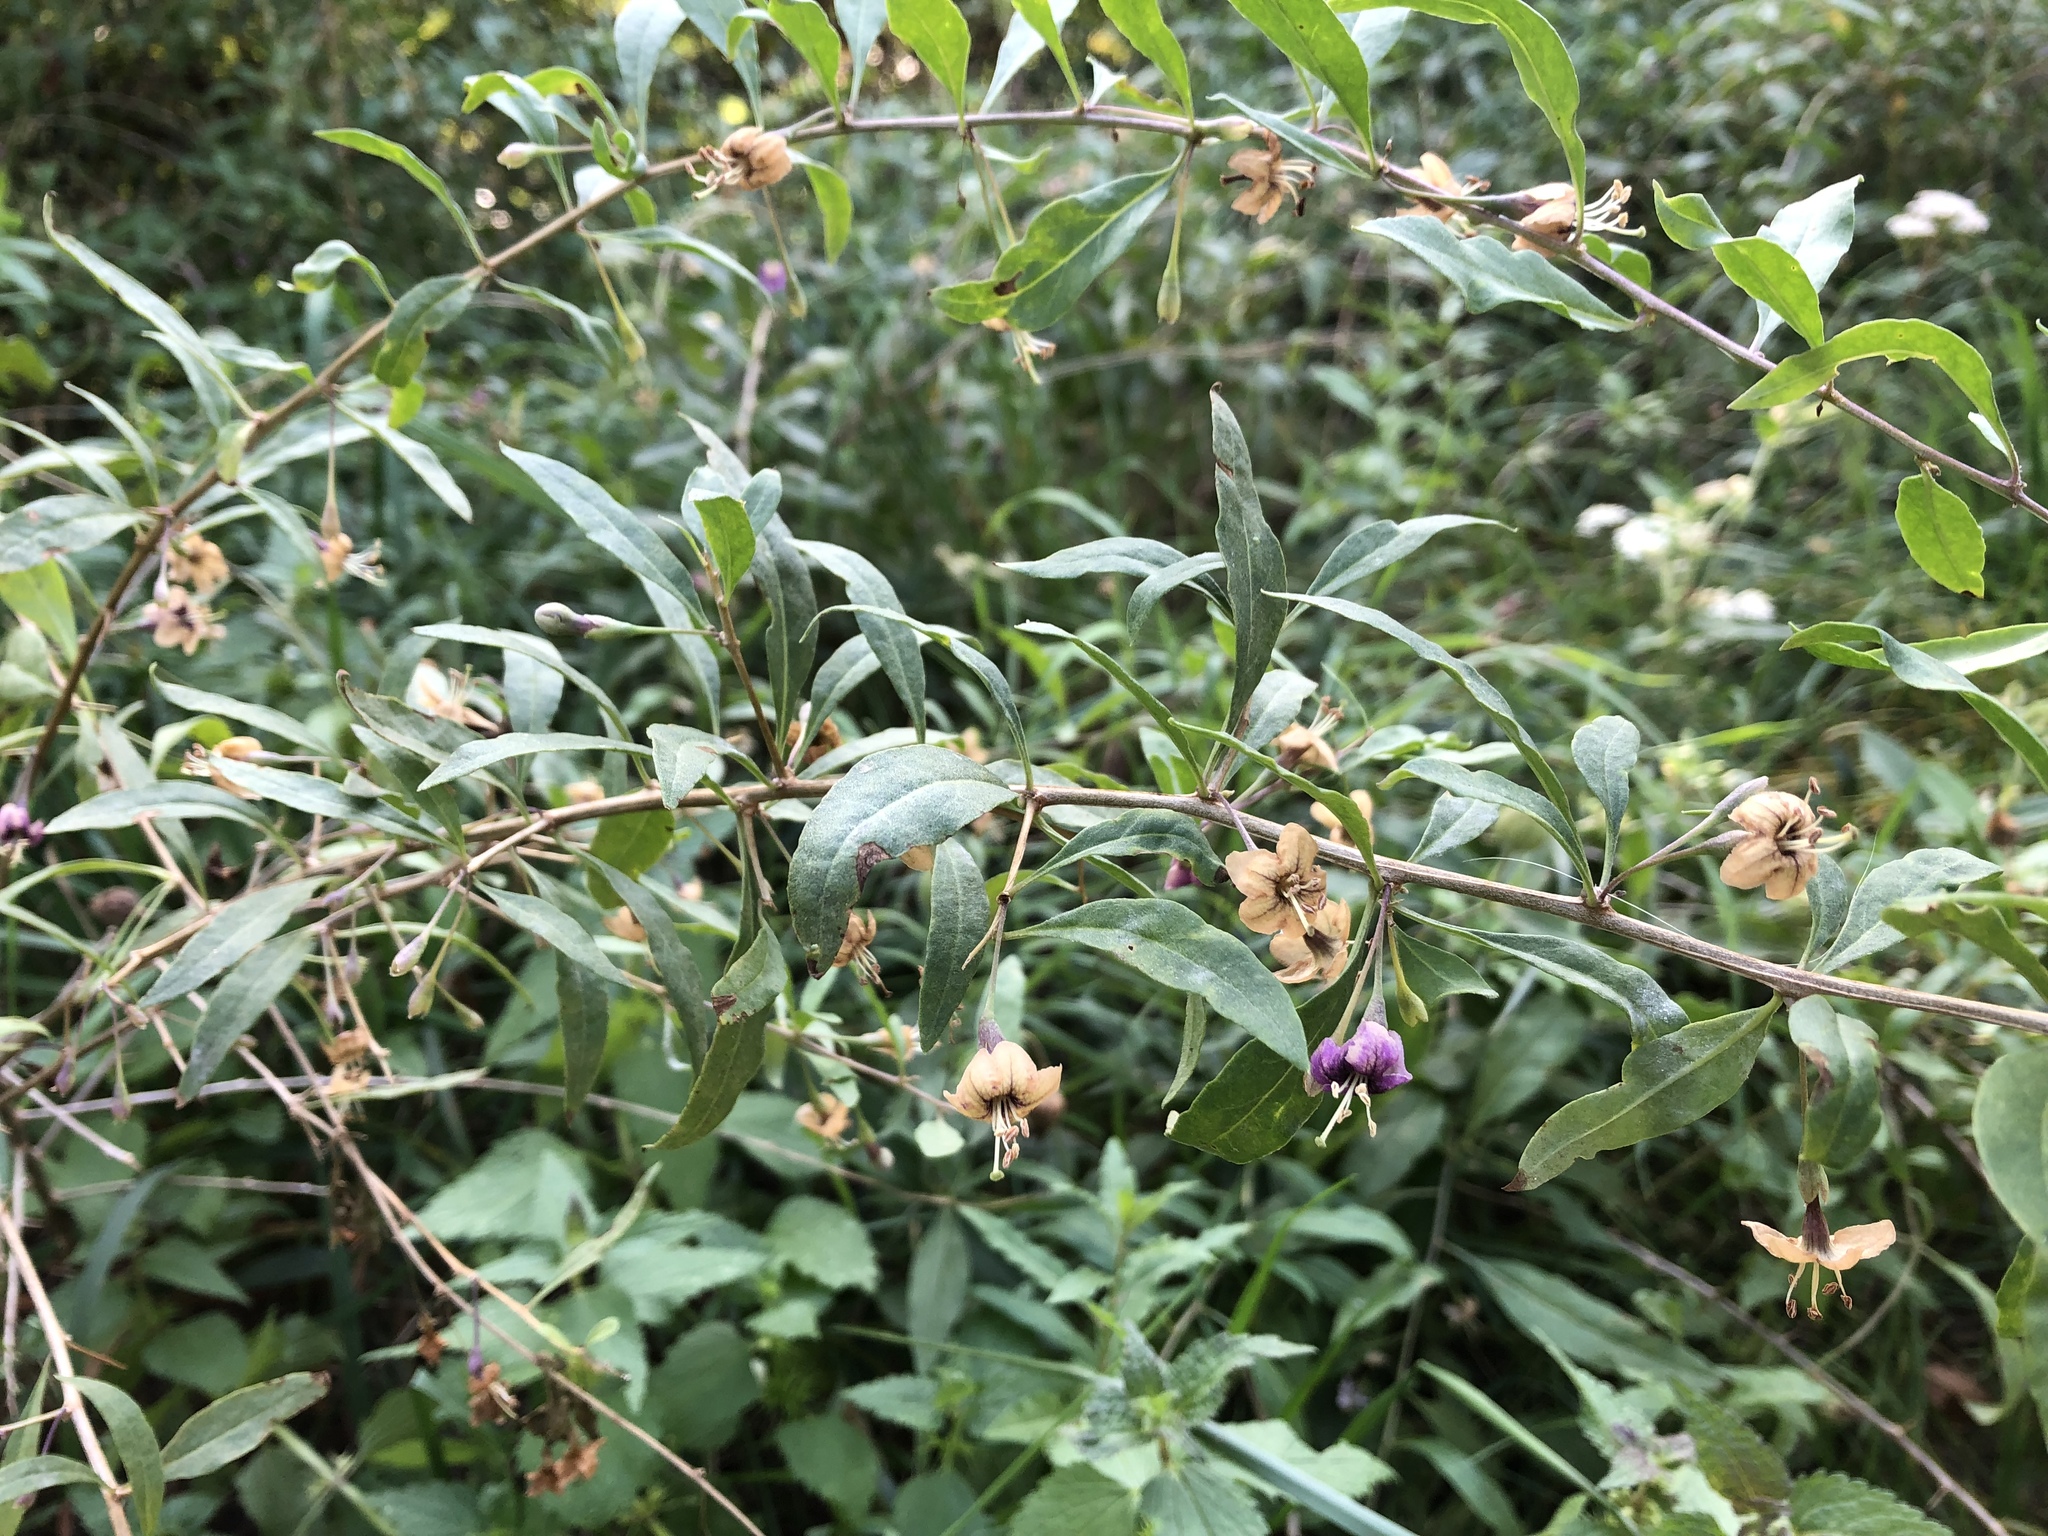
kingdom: Plantae
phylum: Tracheophyta
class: Magnoliopsida
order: Solanales
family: Solanaceae
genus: Lycium
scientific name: Lycium barbarum
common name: Duke of argyll's teaplant
